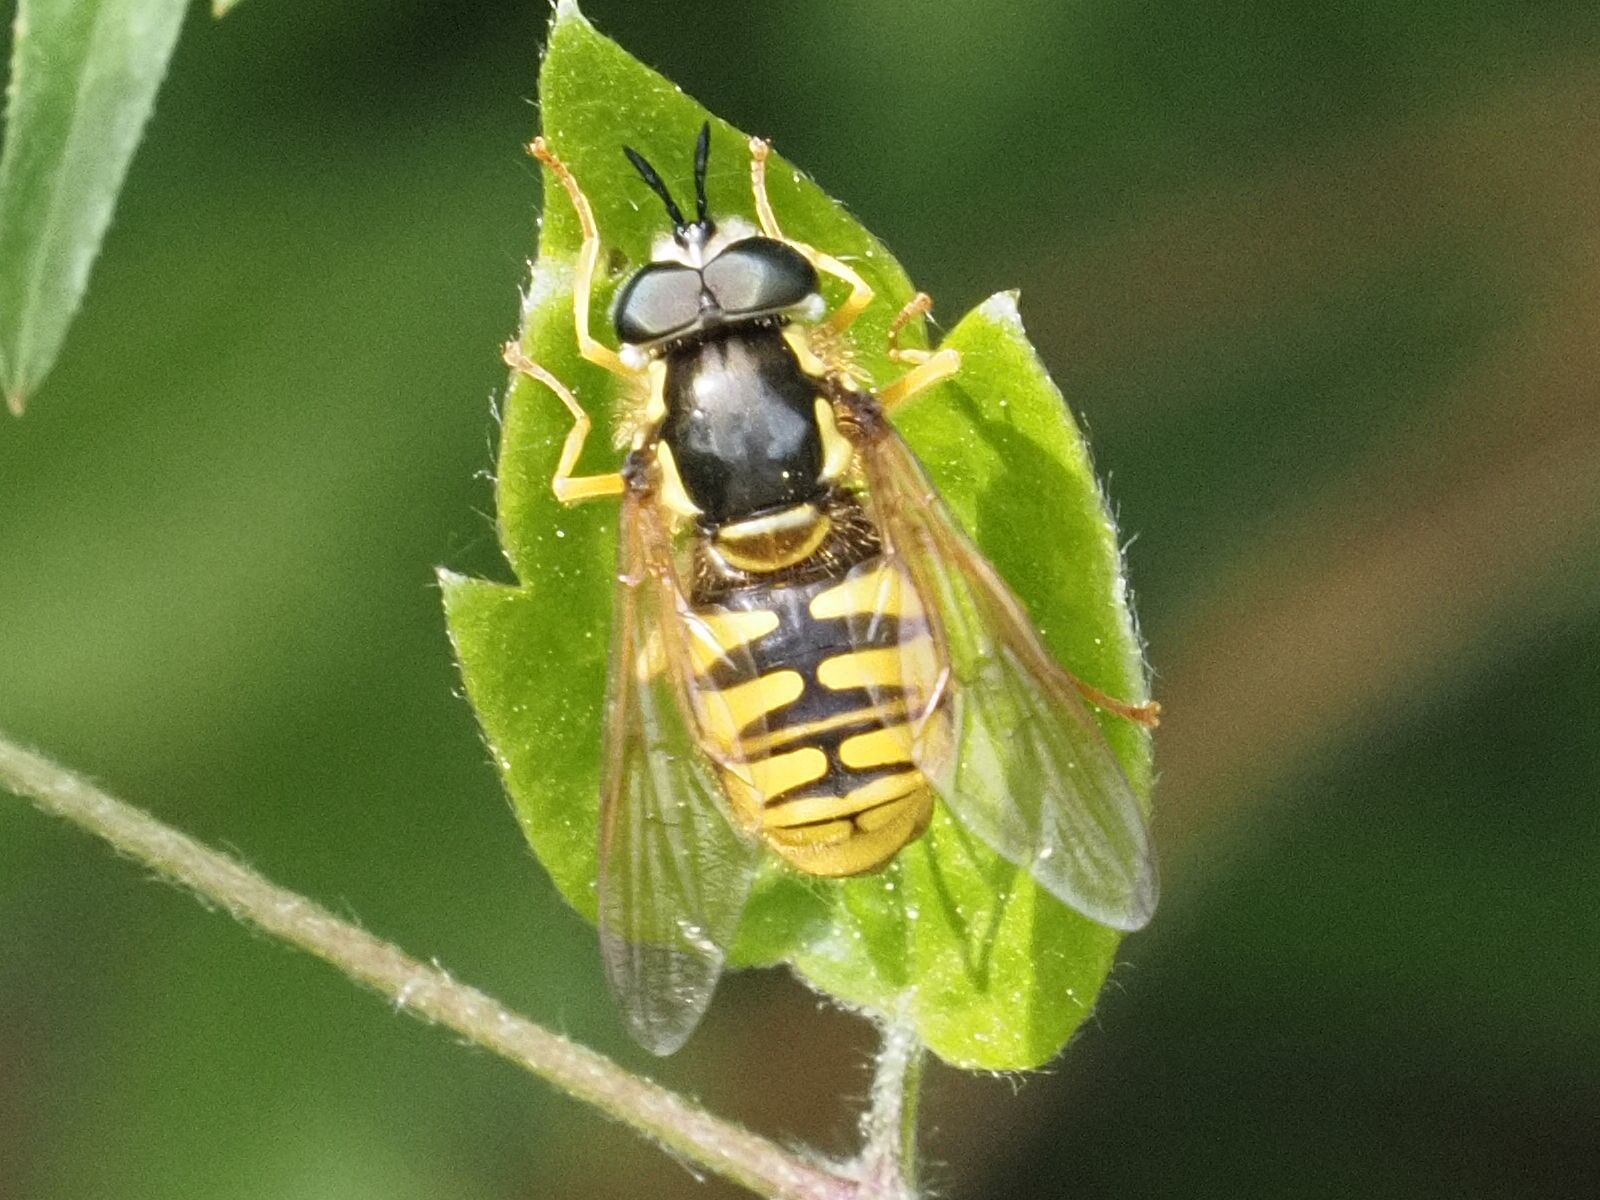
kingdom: Animalia
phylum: Arthropoda
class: Insecta
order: Diptera
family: Syrphidae
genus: Chrysotoxum
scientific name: Chrysotoxum cautum
